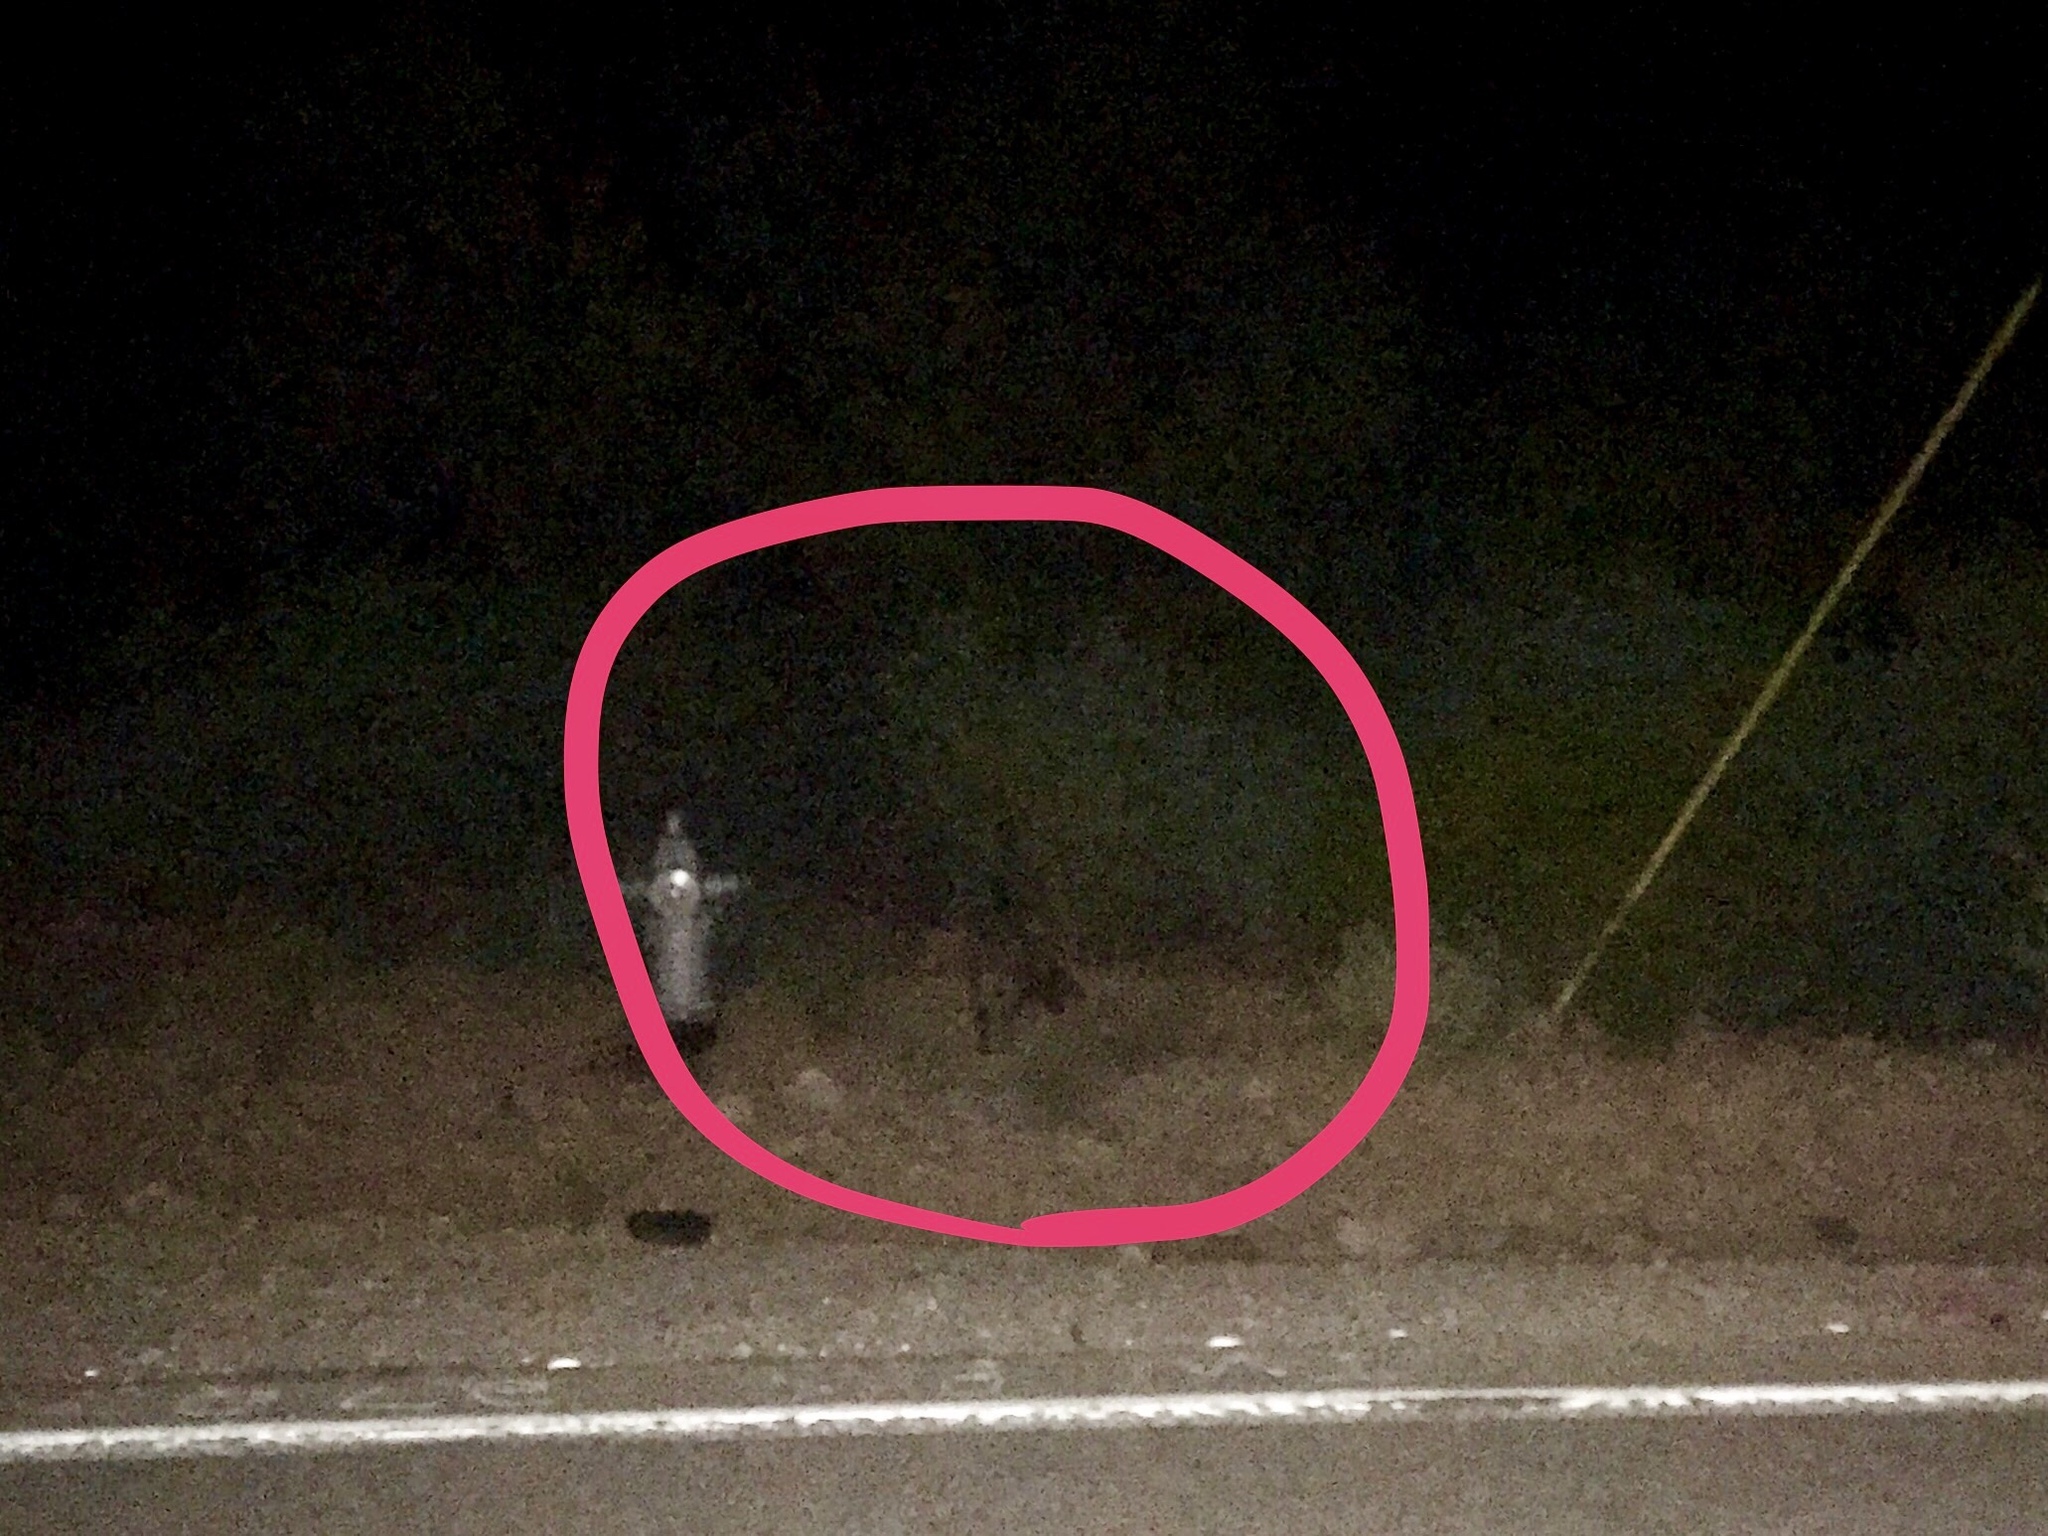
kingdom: Animalia
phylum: Chordata
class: Mammalia
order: Artiodactyla
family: Tayassuidae
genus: Pecari
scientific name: Pecari tajacu
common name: Collared peccary
